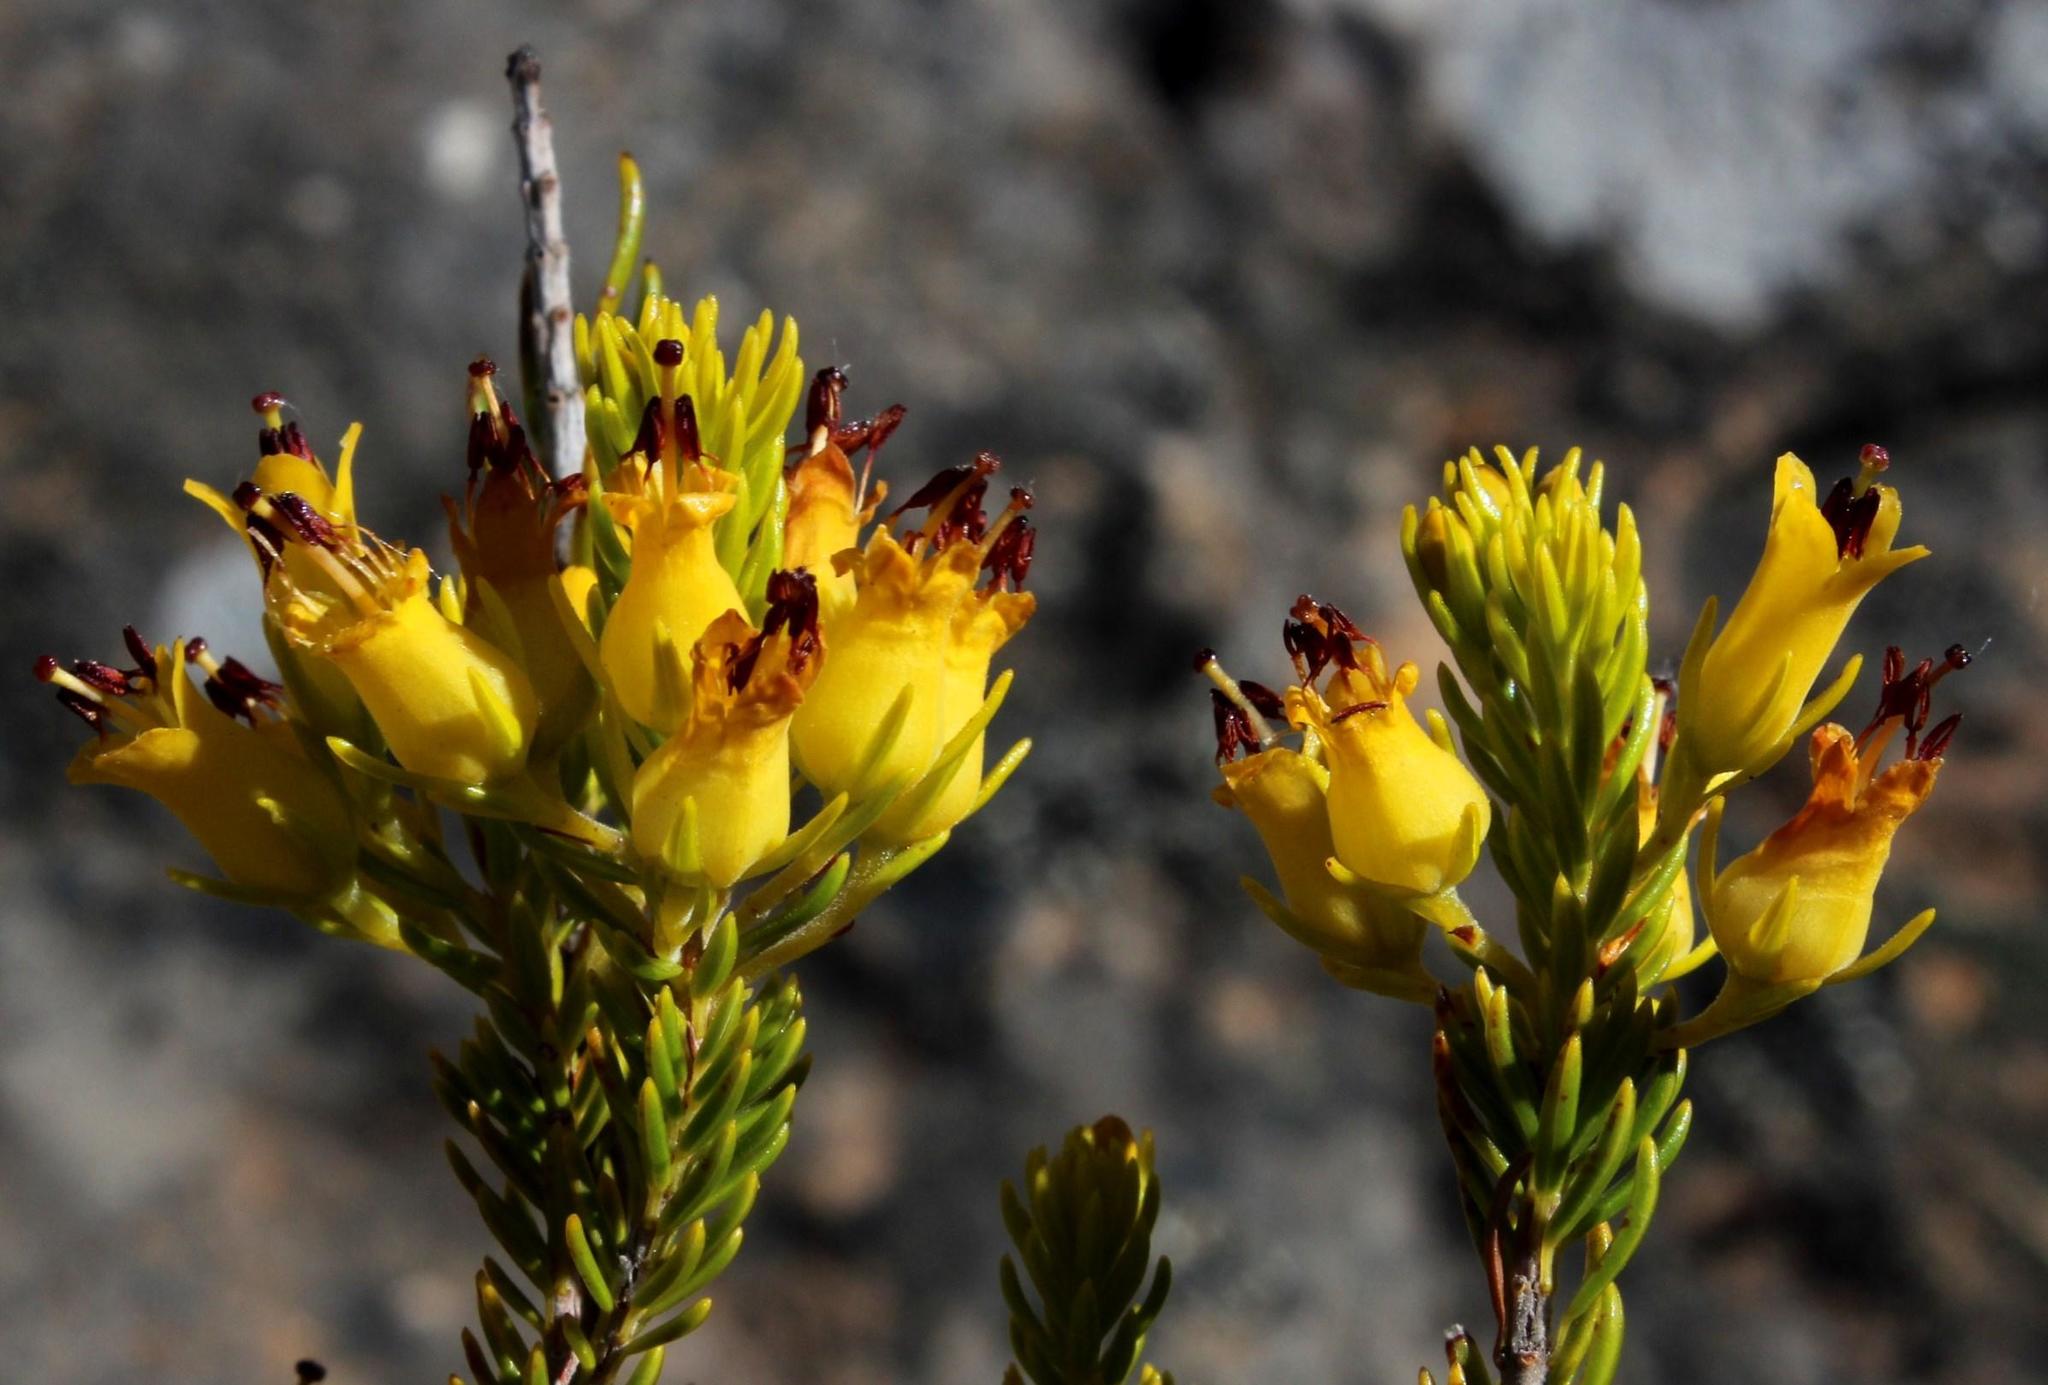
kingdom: Plantae
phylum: Tracheophyta
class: Magnoliopsida
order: Ericales
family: Ericaceae
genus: Erica
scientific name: Erica parilis
